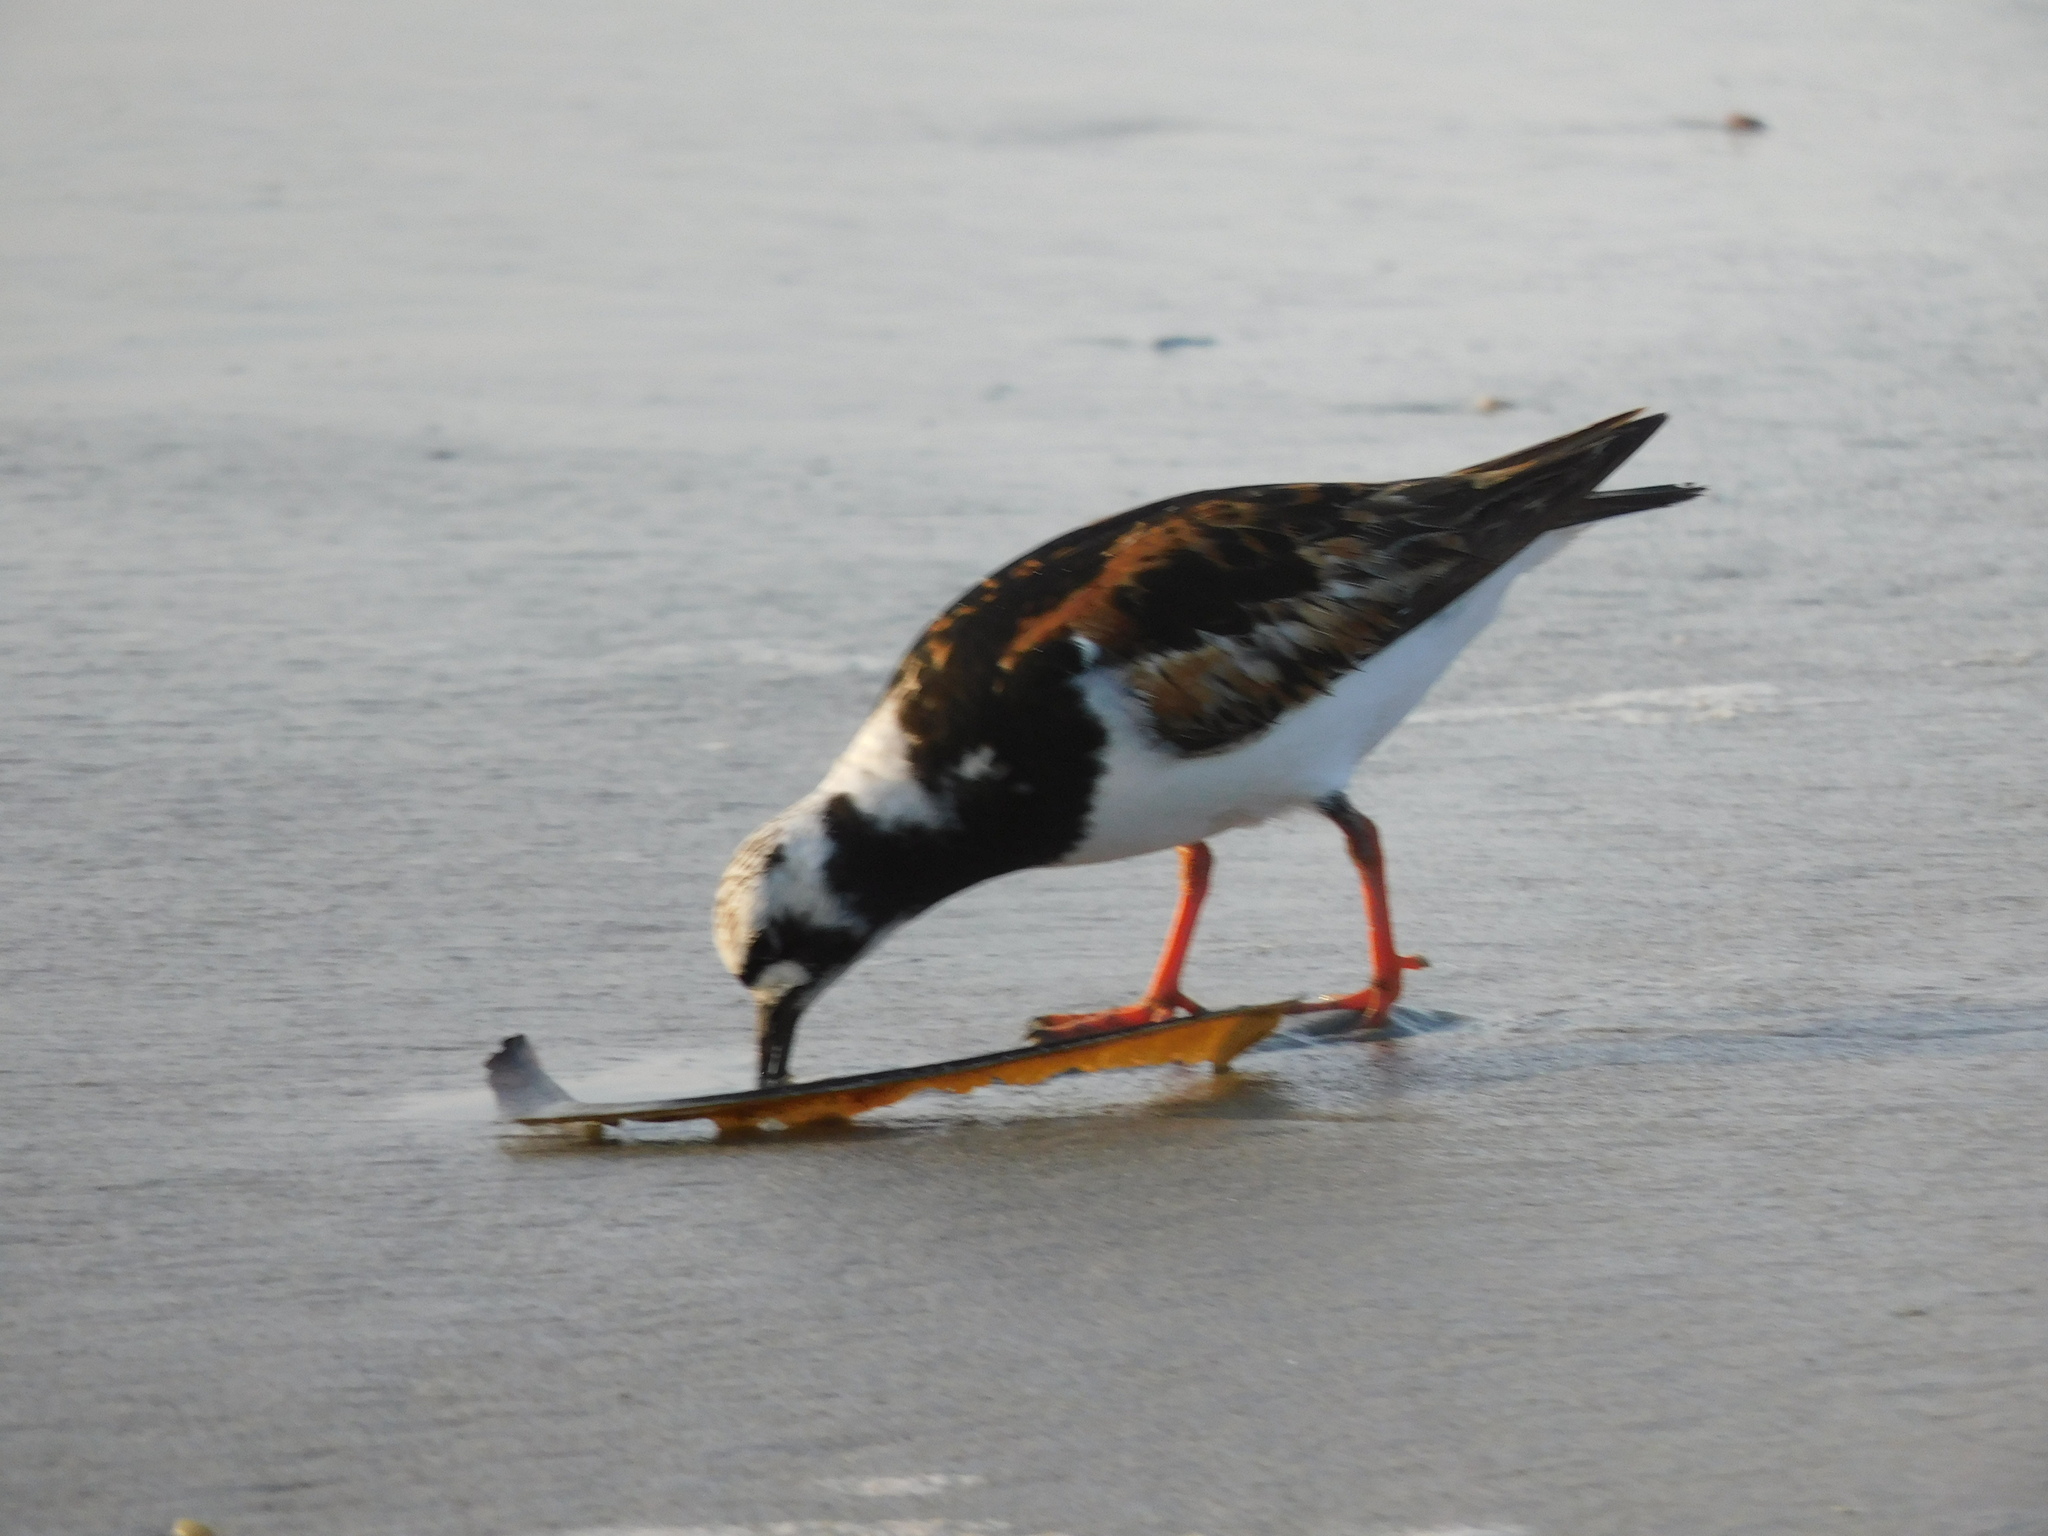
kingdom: Animalia
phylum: Chordata
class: Aves
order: Charadriiformes
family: Scolopacidae
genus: Arenaria
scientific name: Arenaria interpres
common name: Ruddy turnstone
